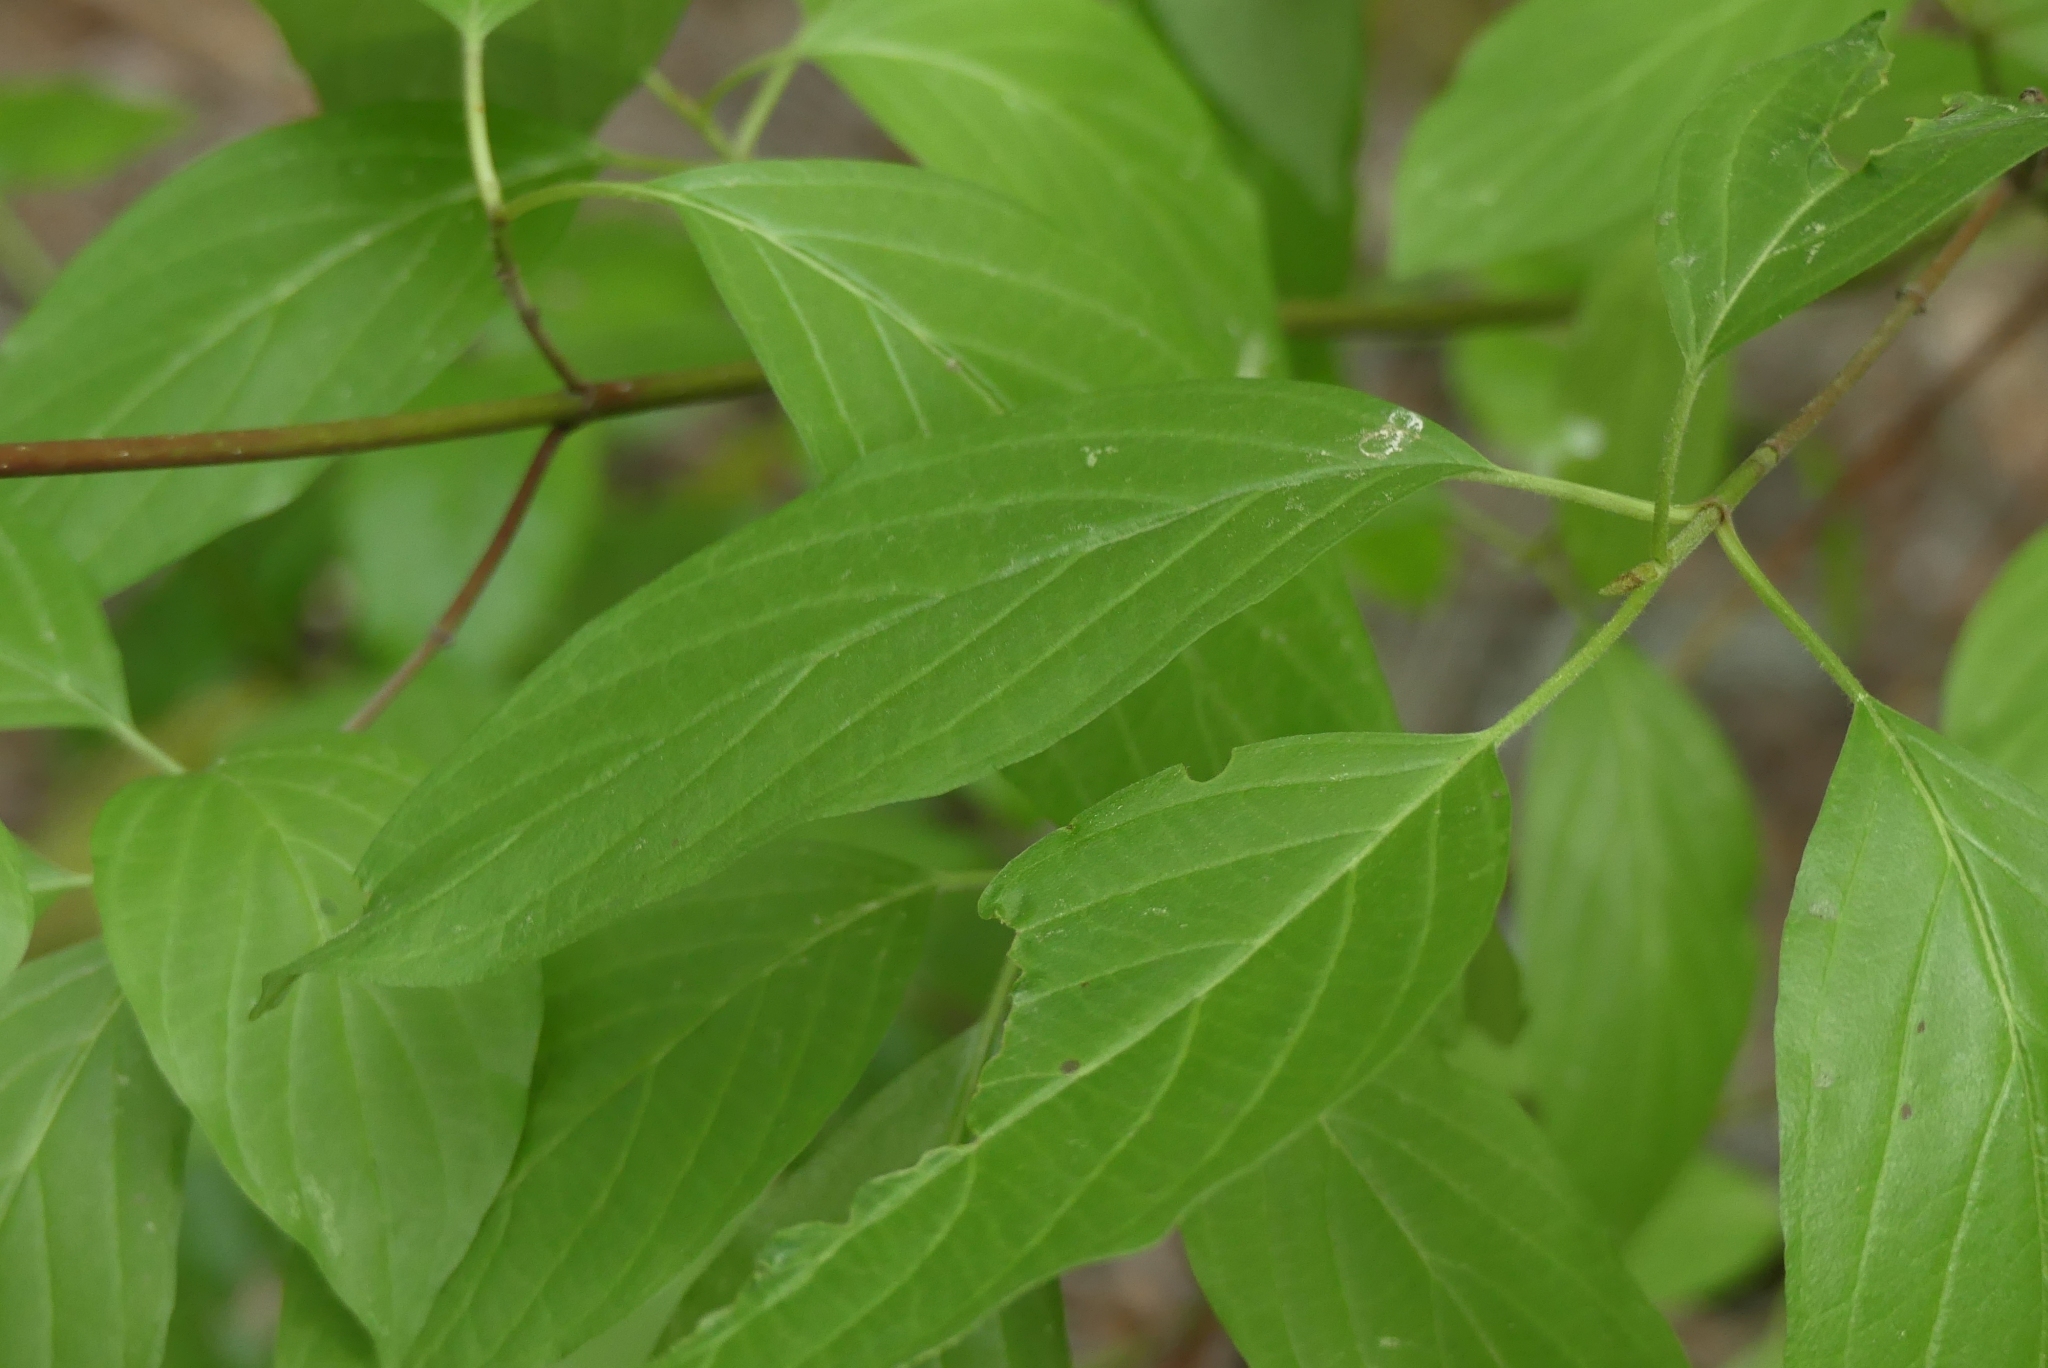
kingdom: Plantae
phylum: Tracheophyta
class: Magnoliopsida
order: Cornales
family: Cornaceae
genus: Cornus
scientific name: Cornus sericea
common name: Red-osier dogwood
